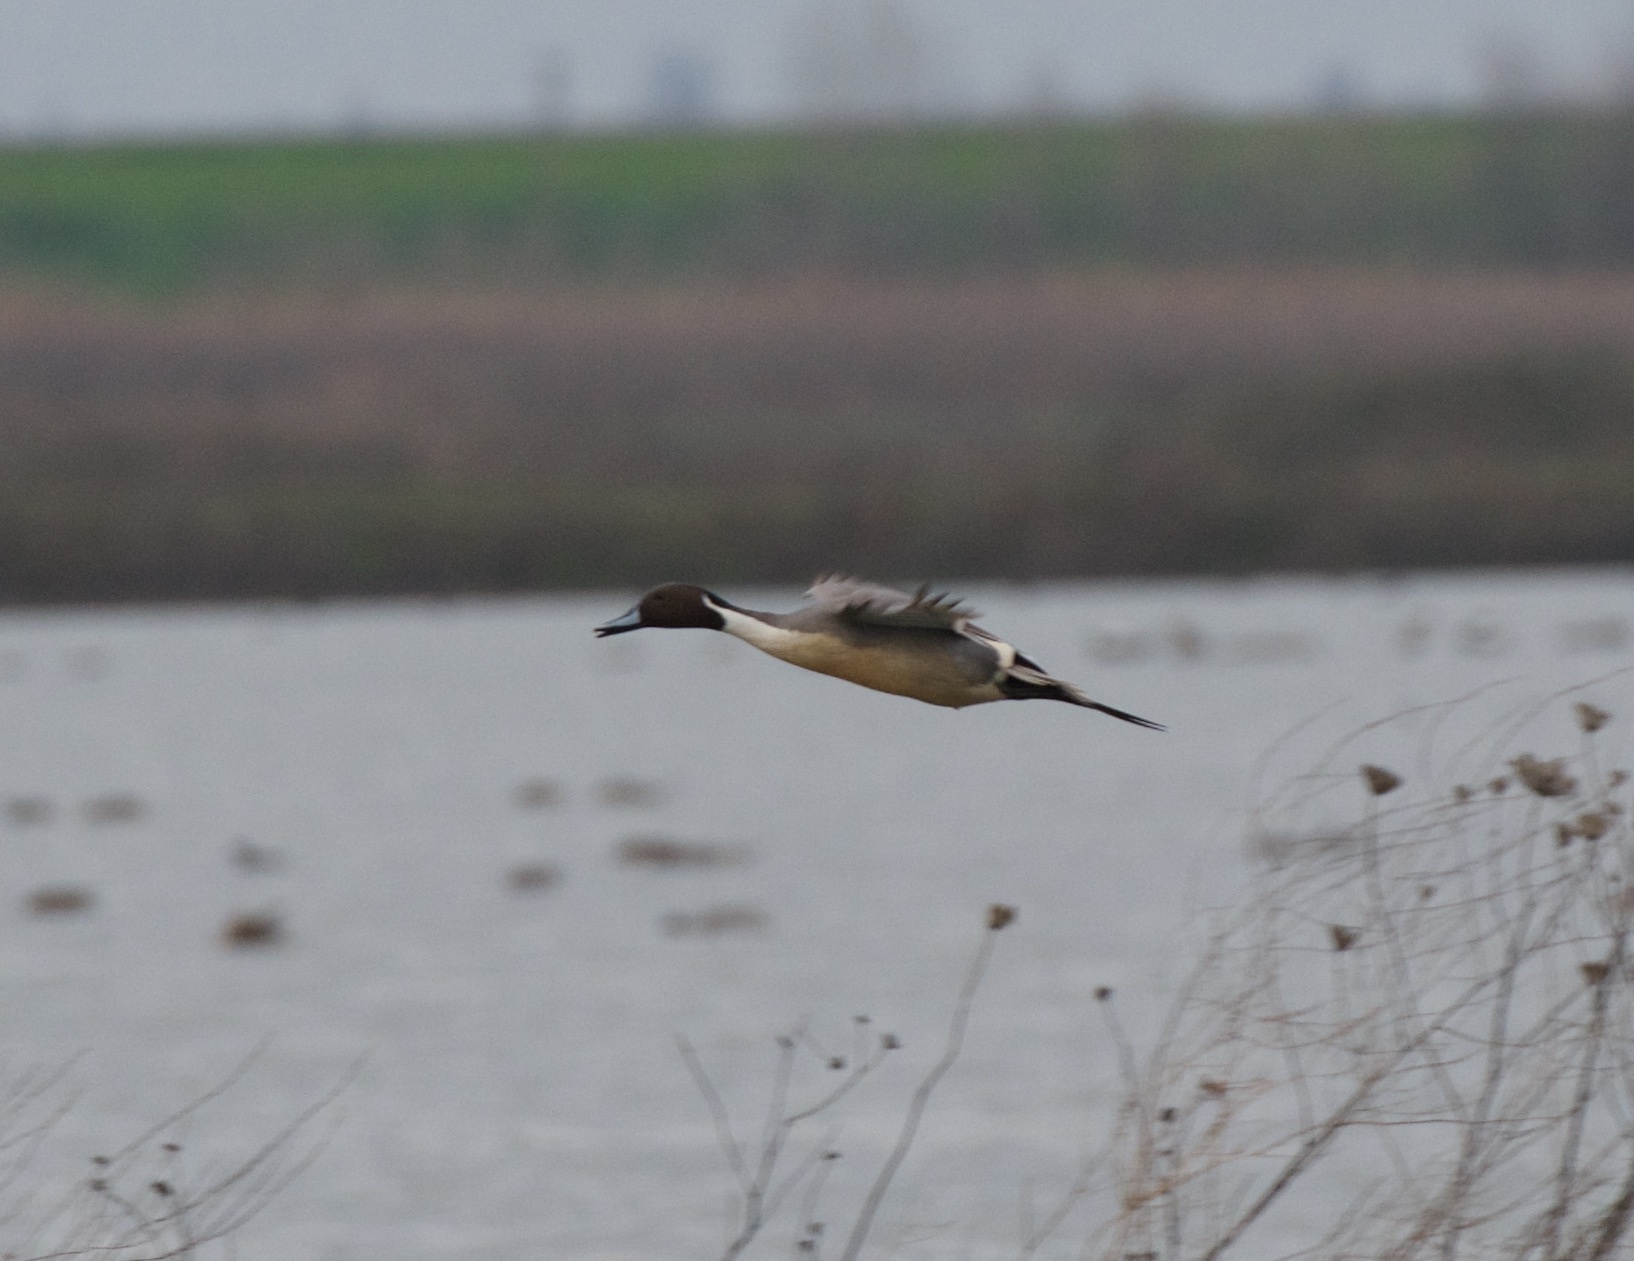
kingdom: Animalia
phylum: Chordata
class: Aves
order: Anseriformes
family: Anatidae
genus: Anas
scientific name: Anas acuta
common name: Northern pintail
